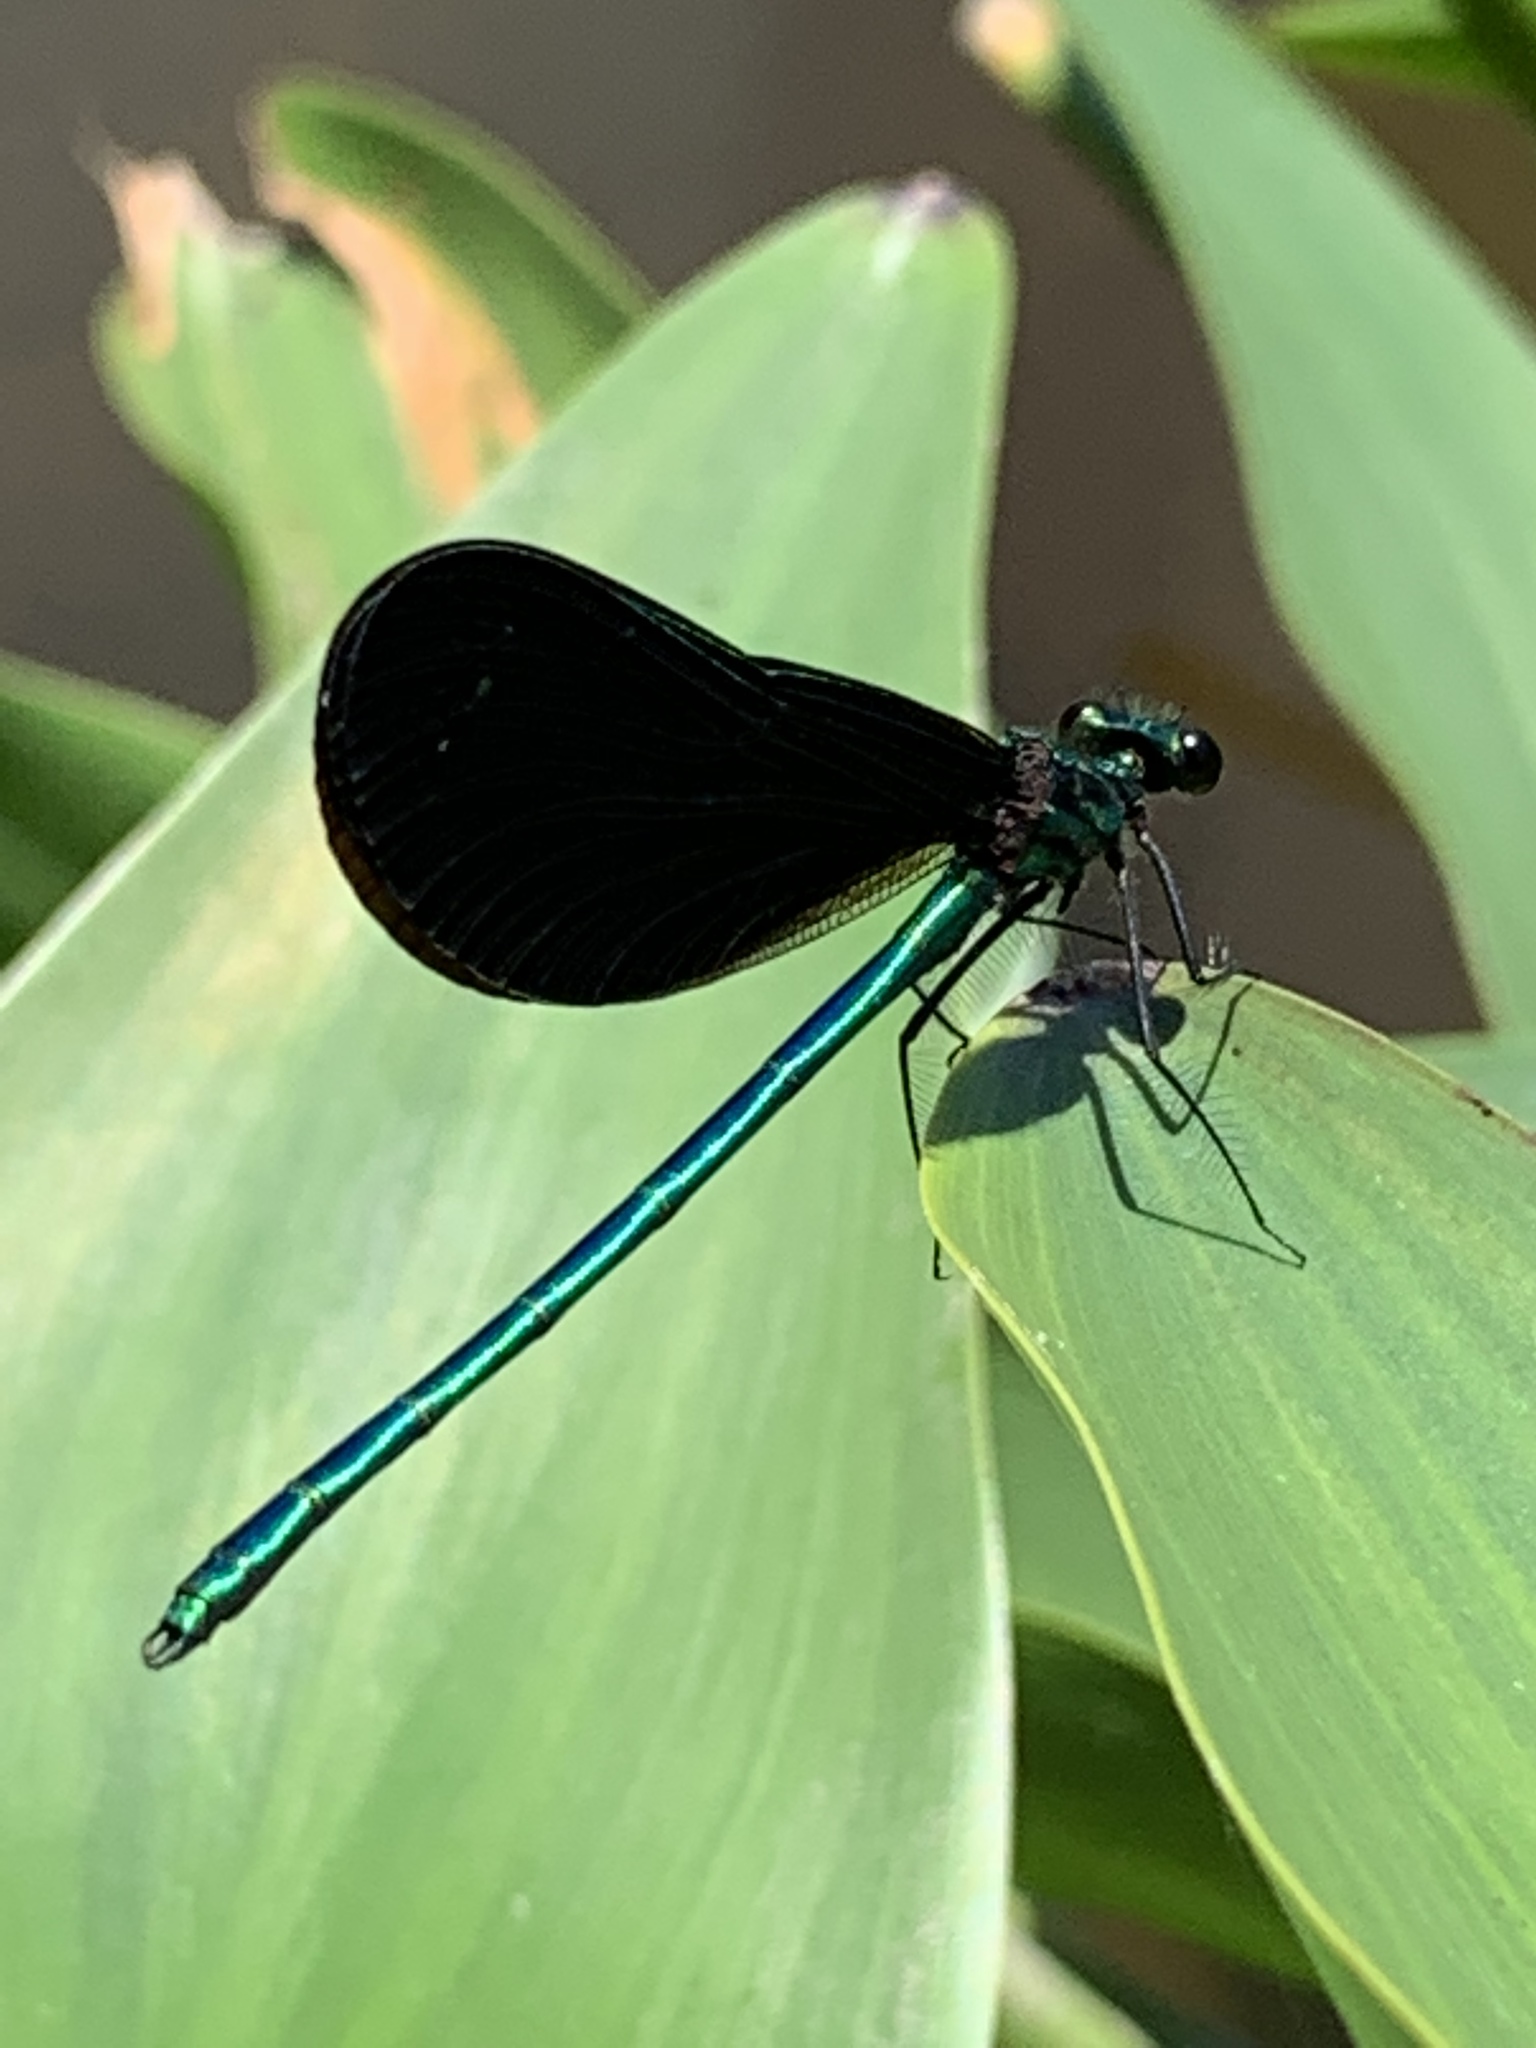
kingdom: Animalia
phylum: Arthropoda
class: Insecta
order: Odonata
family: Calopterygidae
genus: Calopteryx
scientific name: Calopteryx maculata
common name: Ebony jewelwing
